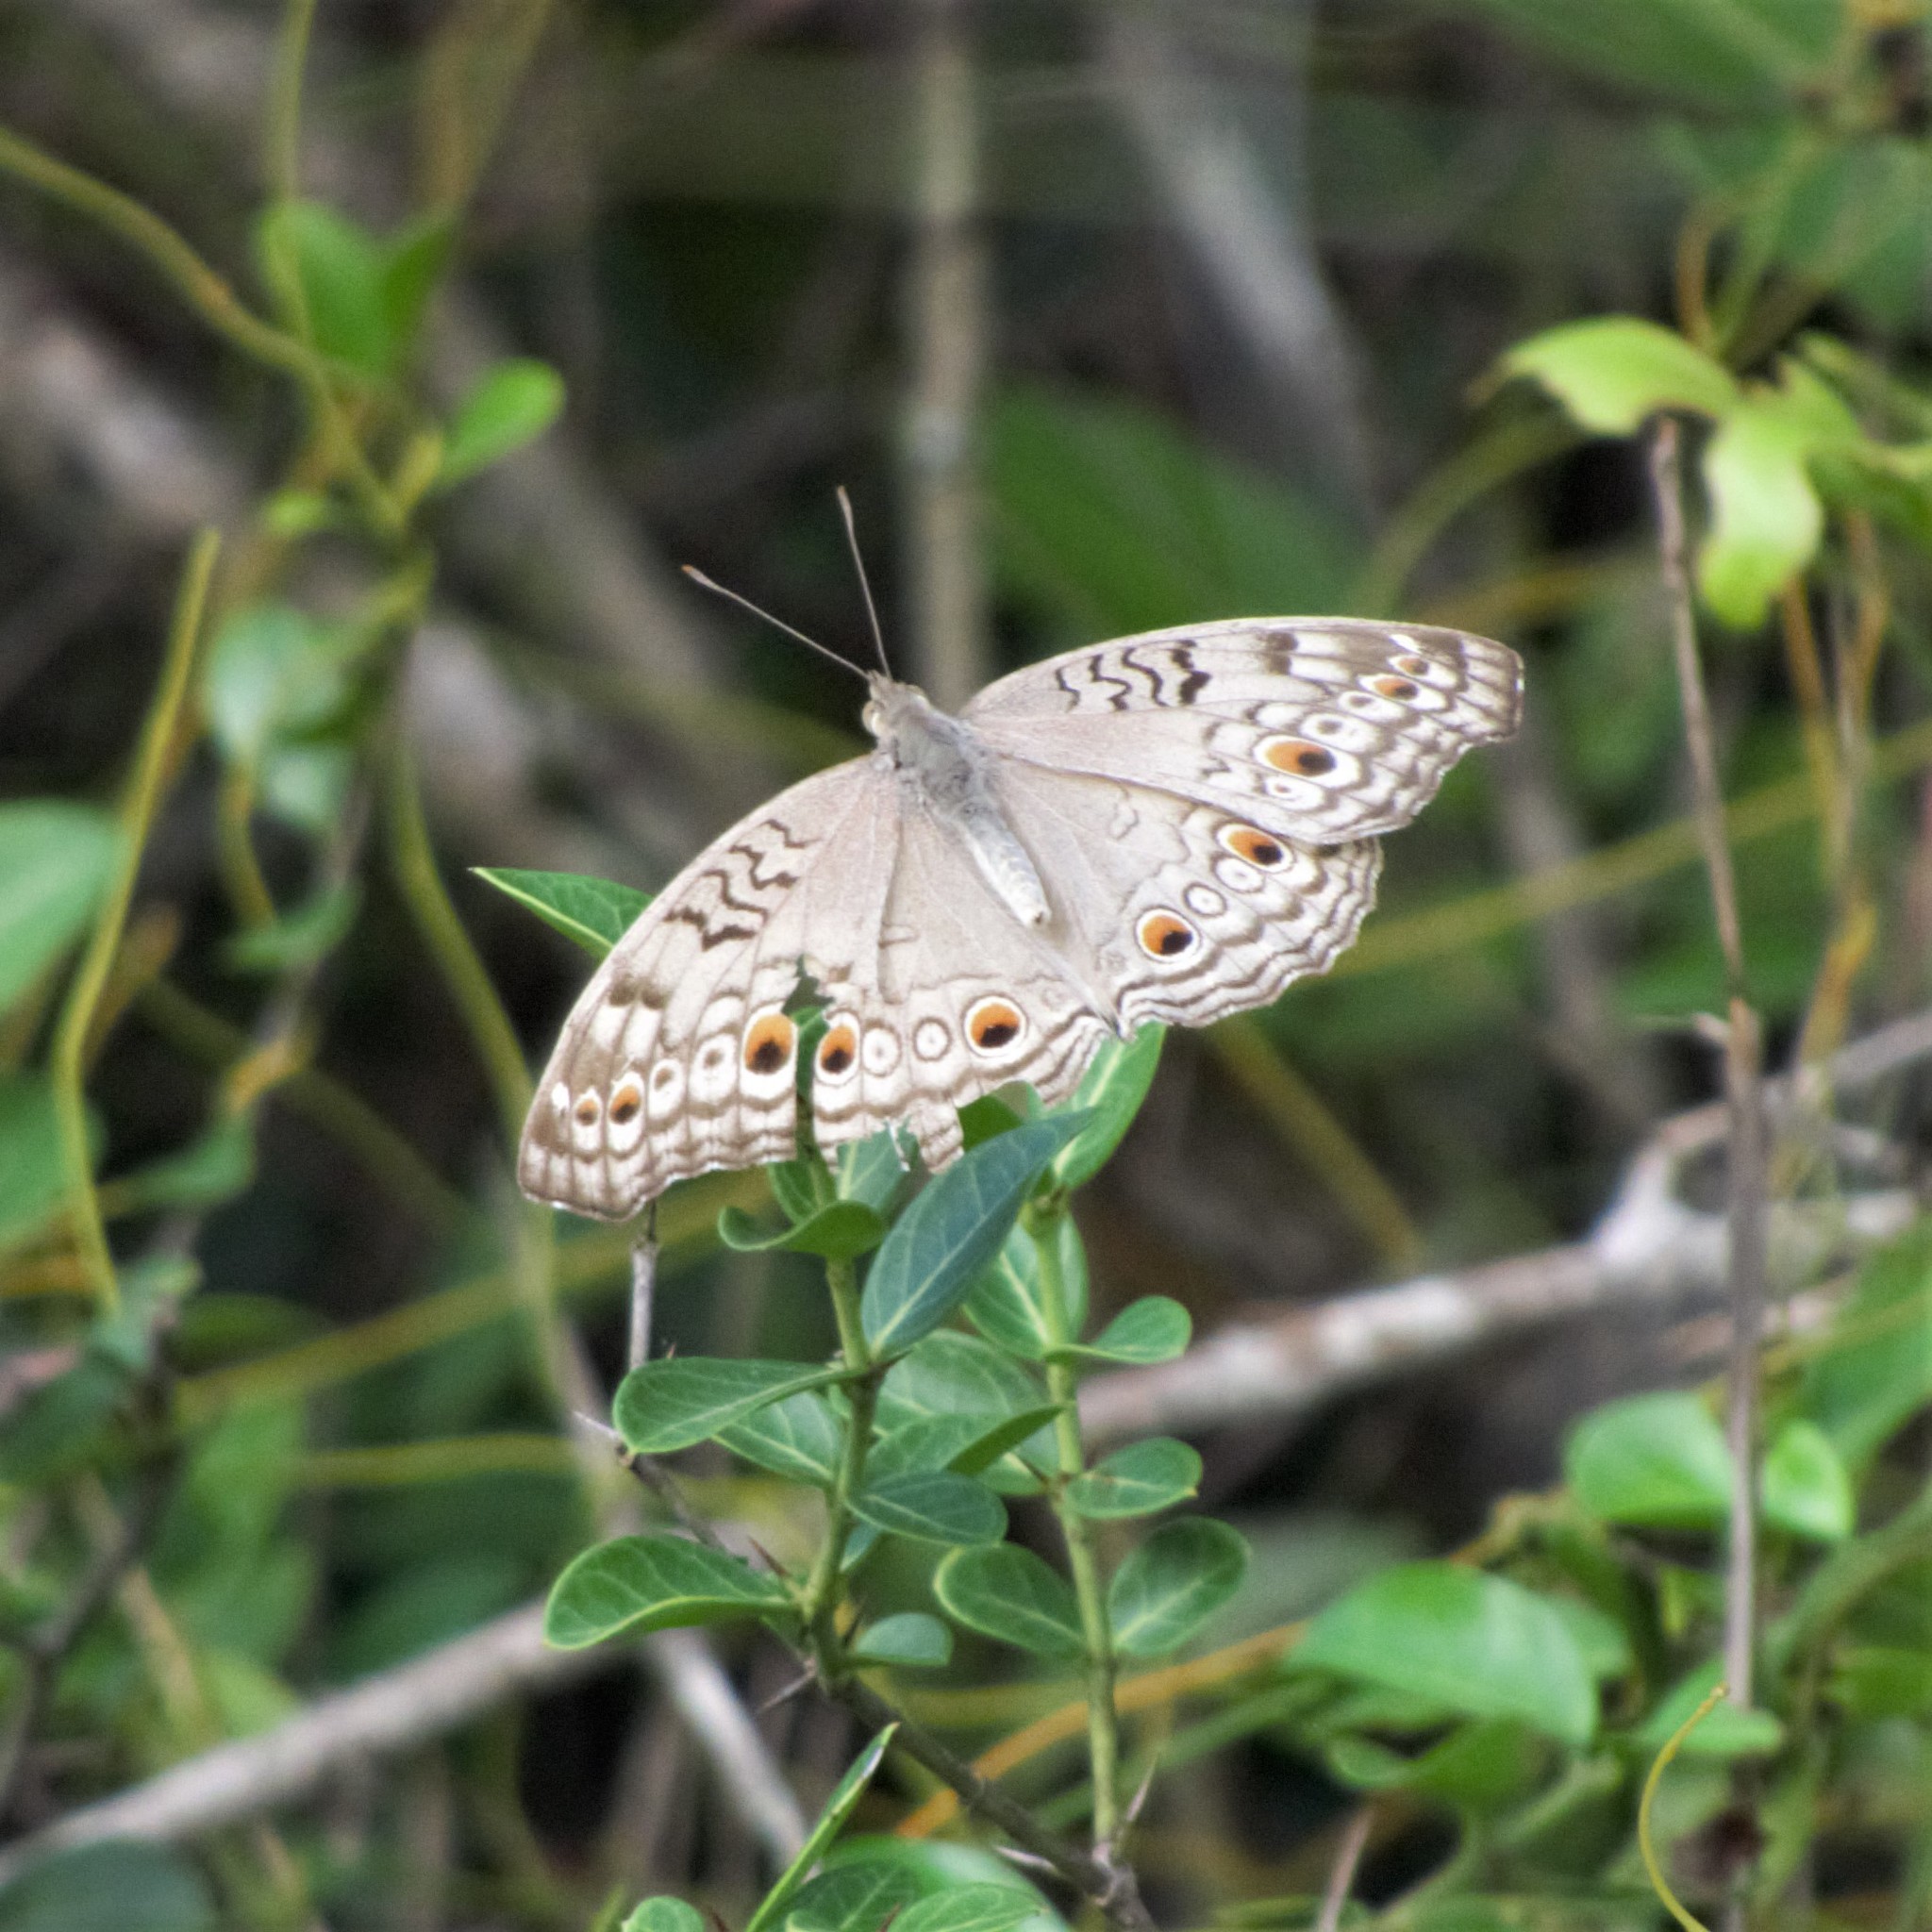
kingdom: Animalia
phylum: Arthropoda
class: Insecta
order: Lepidoptera
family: Nymphalidae
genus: Junonia
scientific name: Junonia atlites
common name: Grey pansy
